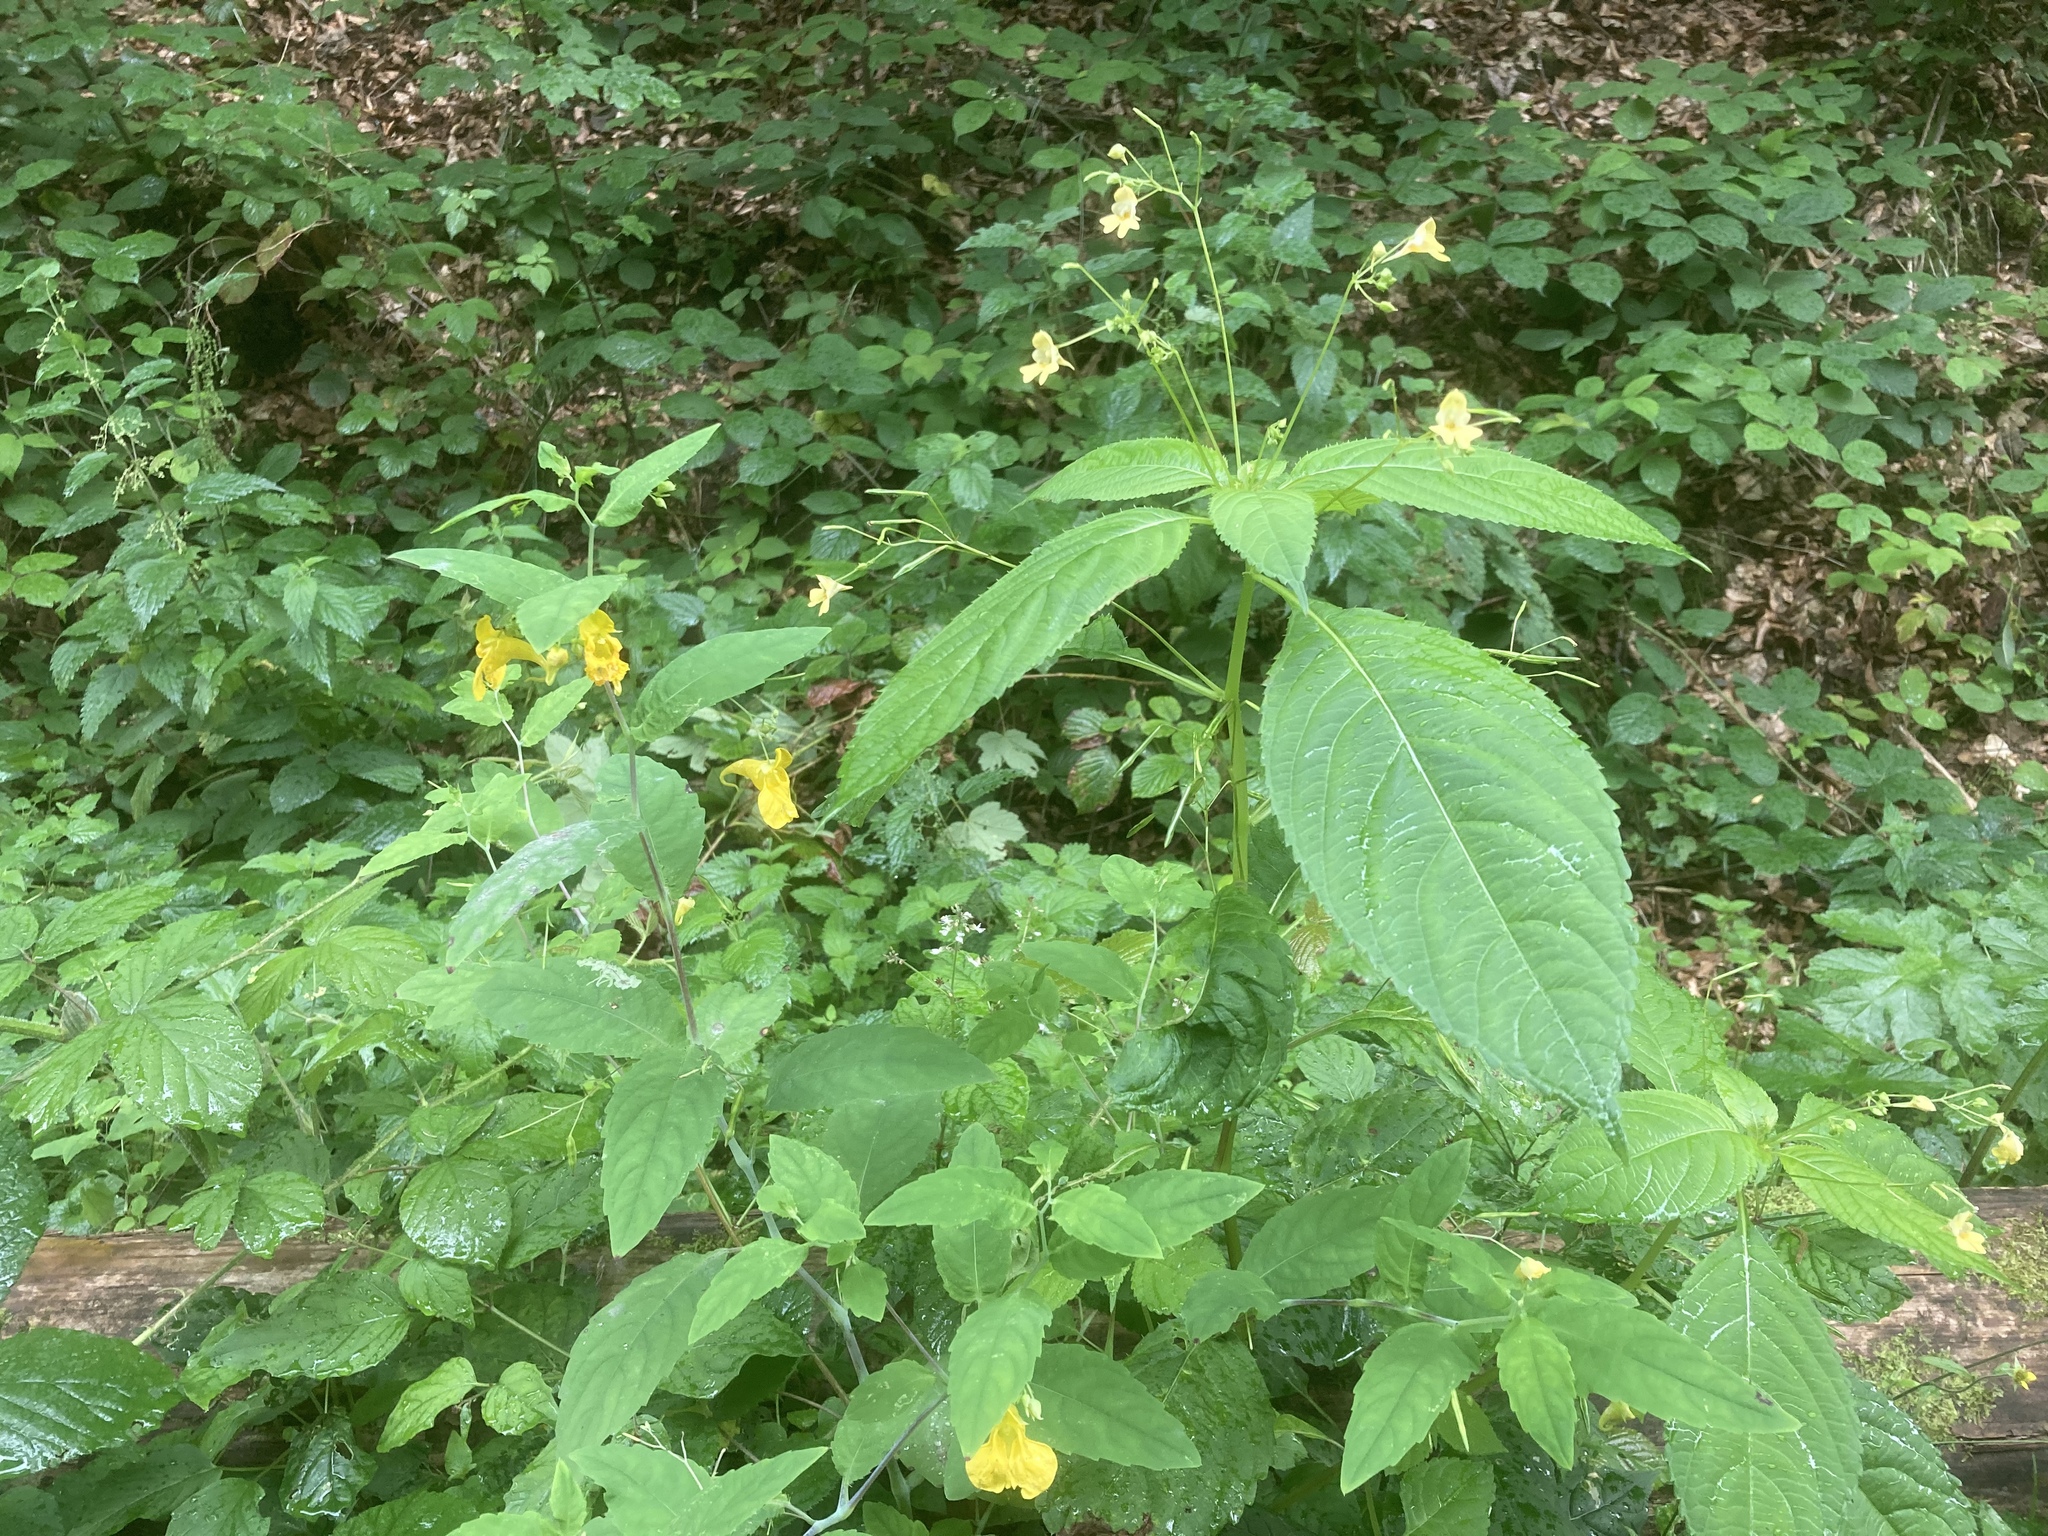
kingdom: Plantae
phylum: Tracheophyta
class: Magnoliopsida
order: Ericales
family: Balsaminaceae
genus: Impatiens
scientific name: Impatiens noli-tangere
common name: Touch-me-not balsam
